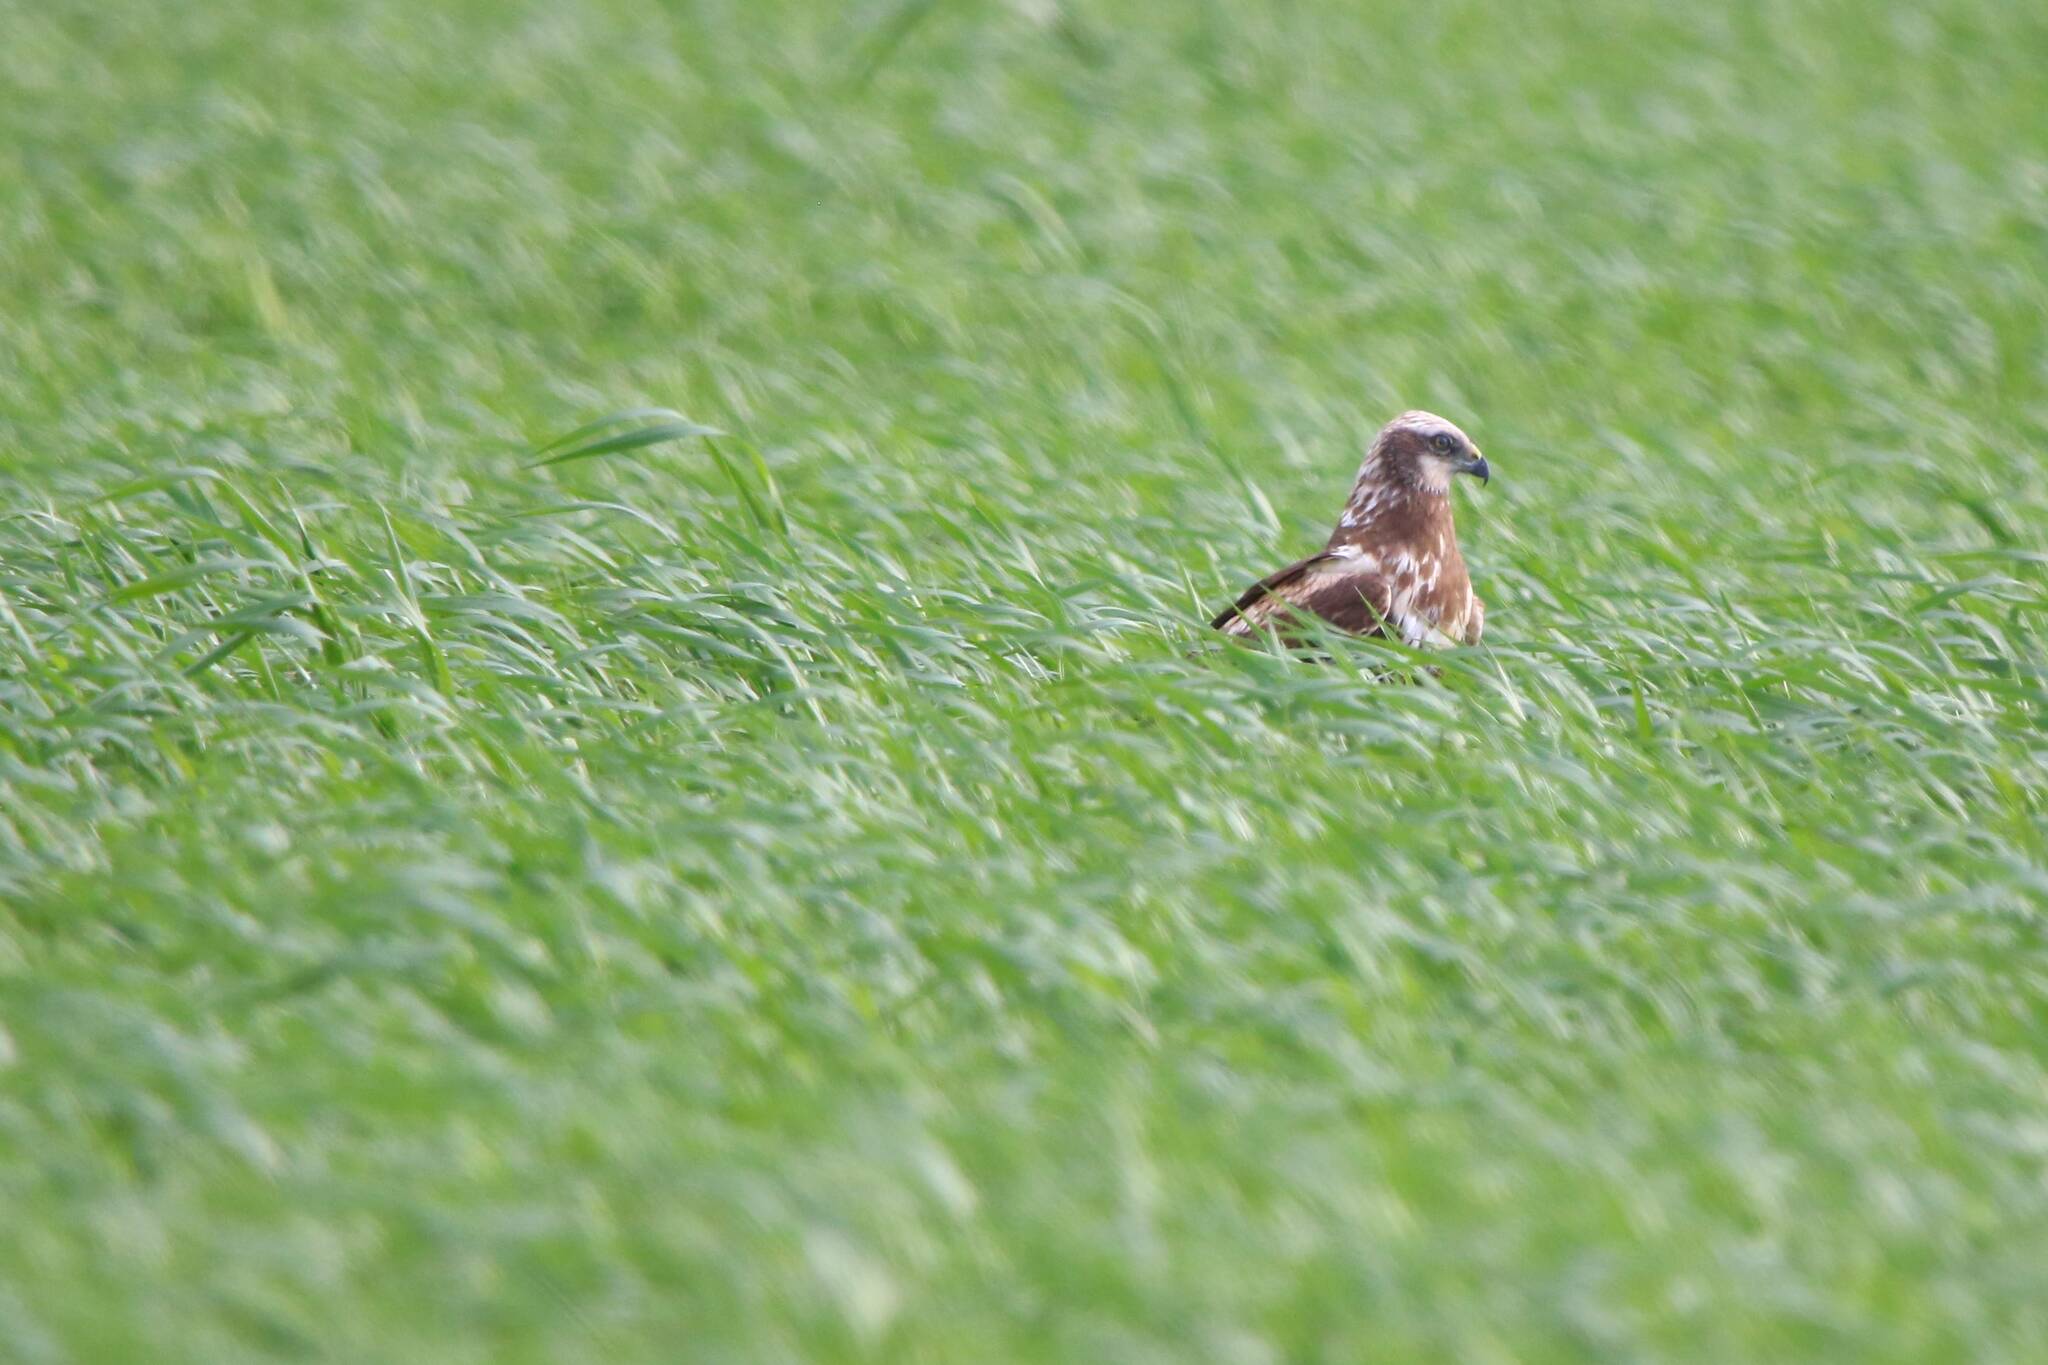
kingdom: Animalia
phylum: Chordata
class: Aves
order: Accipitriformes
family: Accipitridae
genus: Circus
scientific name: Circus aeruginosus
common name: Western marsh harrier
